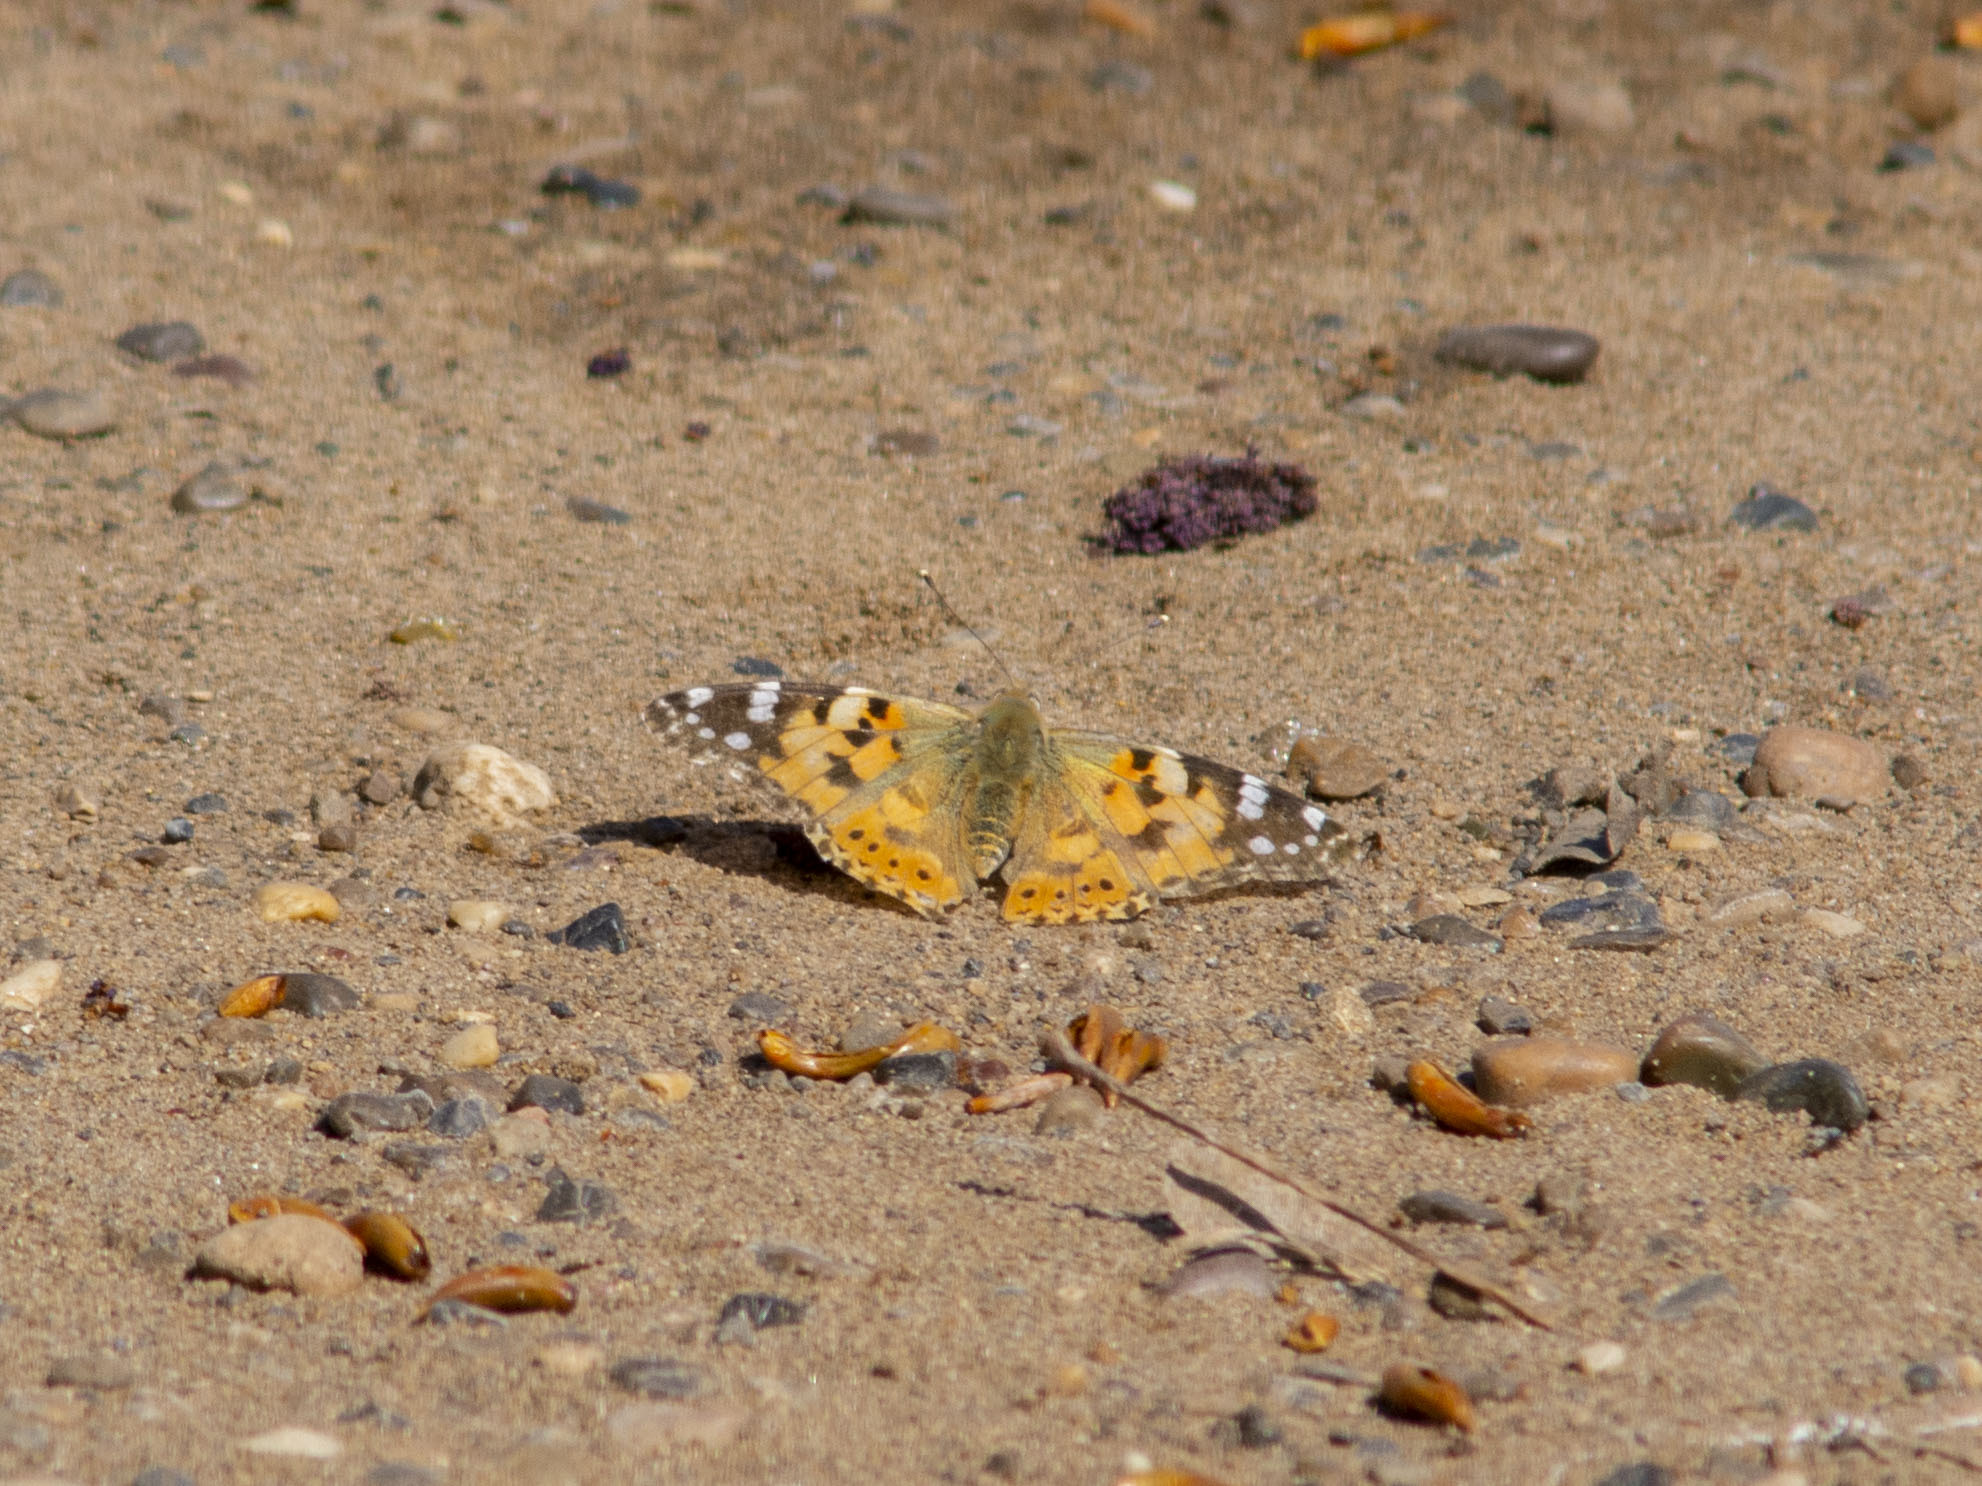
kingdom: Animalia
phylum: Arthropoda
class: Insecta
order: Lepidoptera
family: Nymphalidae
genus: Vanessa
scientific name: Vanessa cardui
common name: Painted lady
